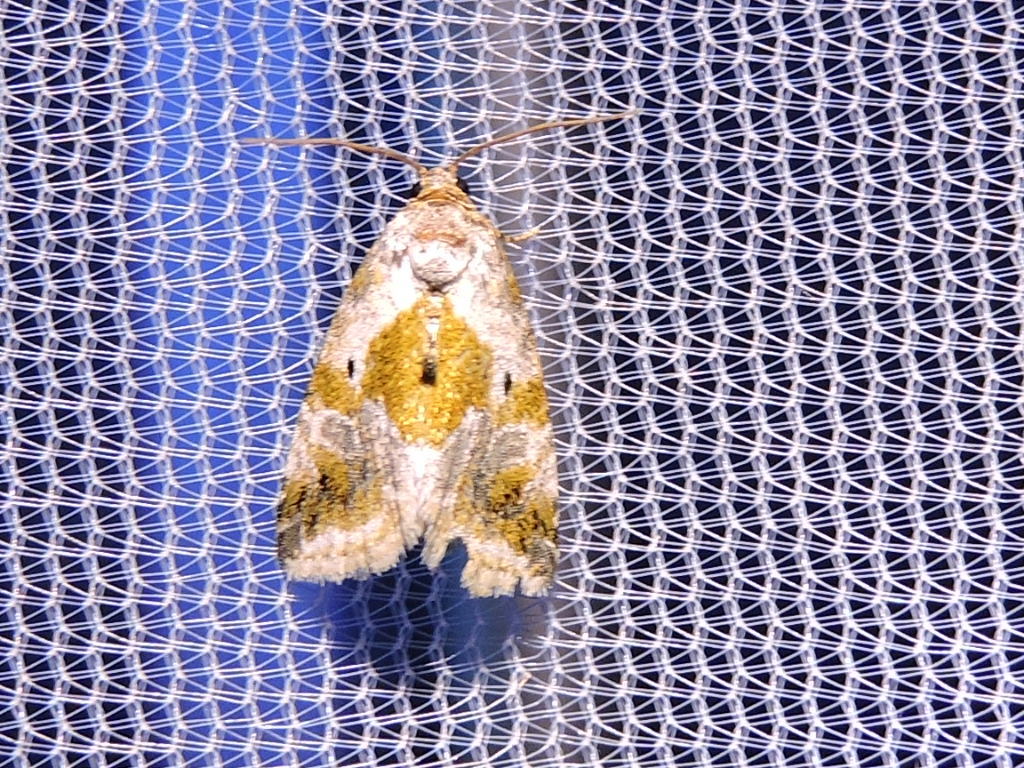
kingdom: Animalia
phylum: Arthropoda
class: Insecta
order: Lepidoptera
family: Noctuidae
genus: Maliattha
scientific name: Maliattha synochitis
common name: Black-dotted glyph
